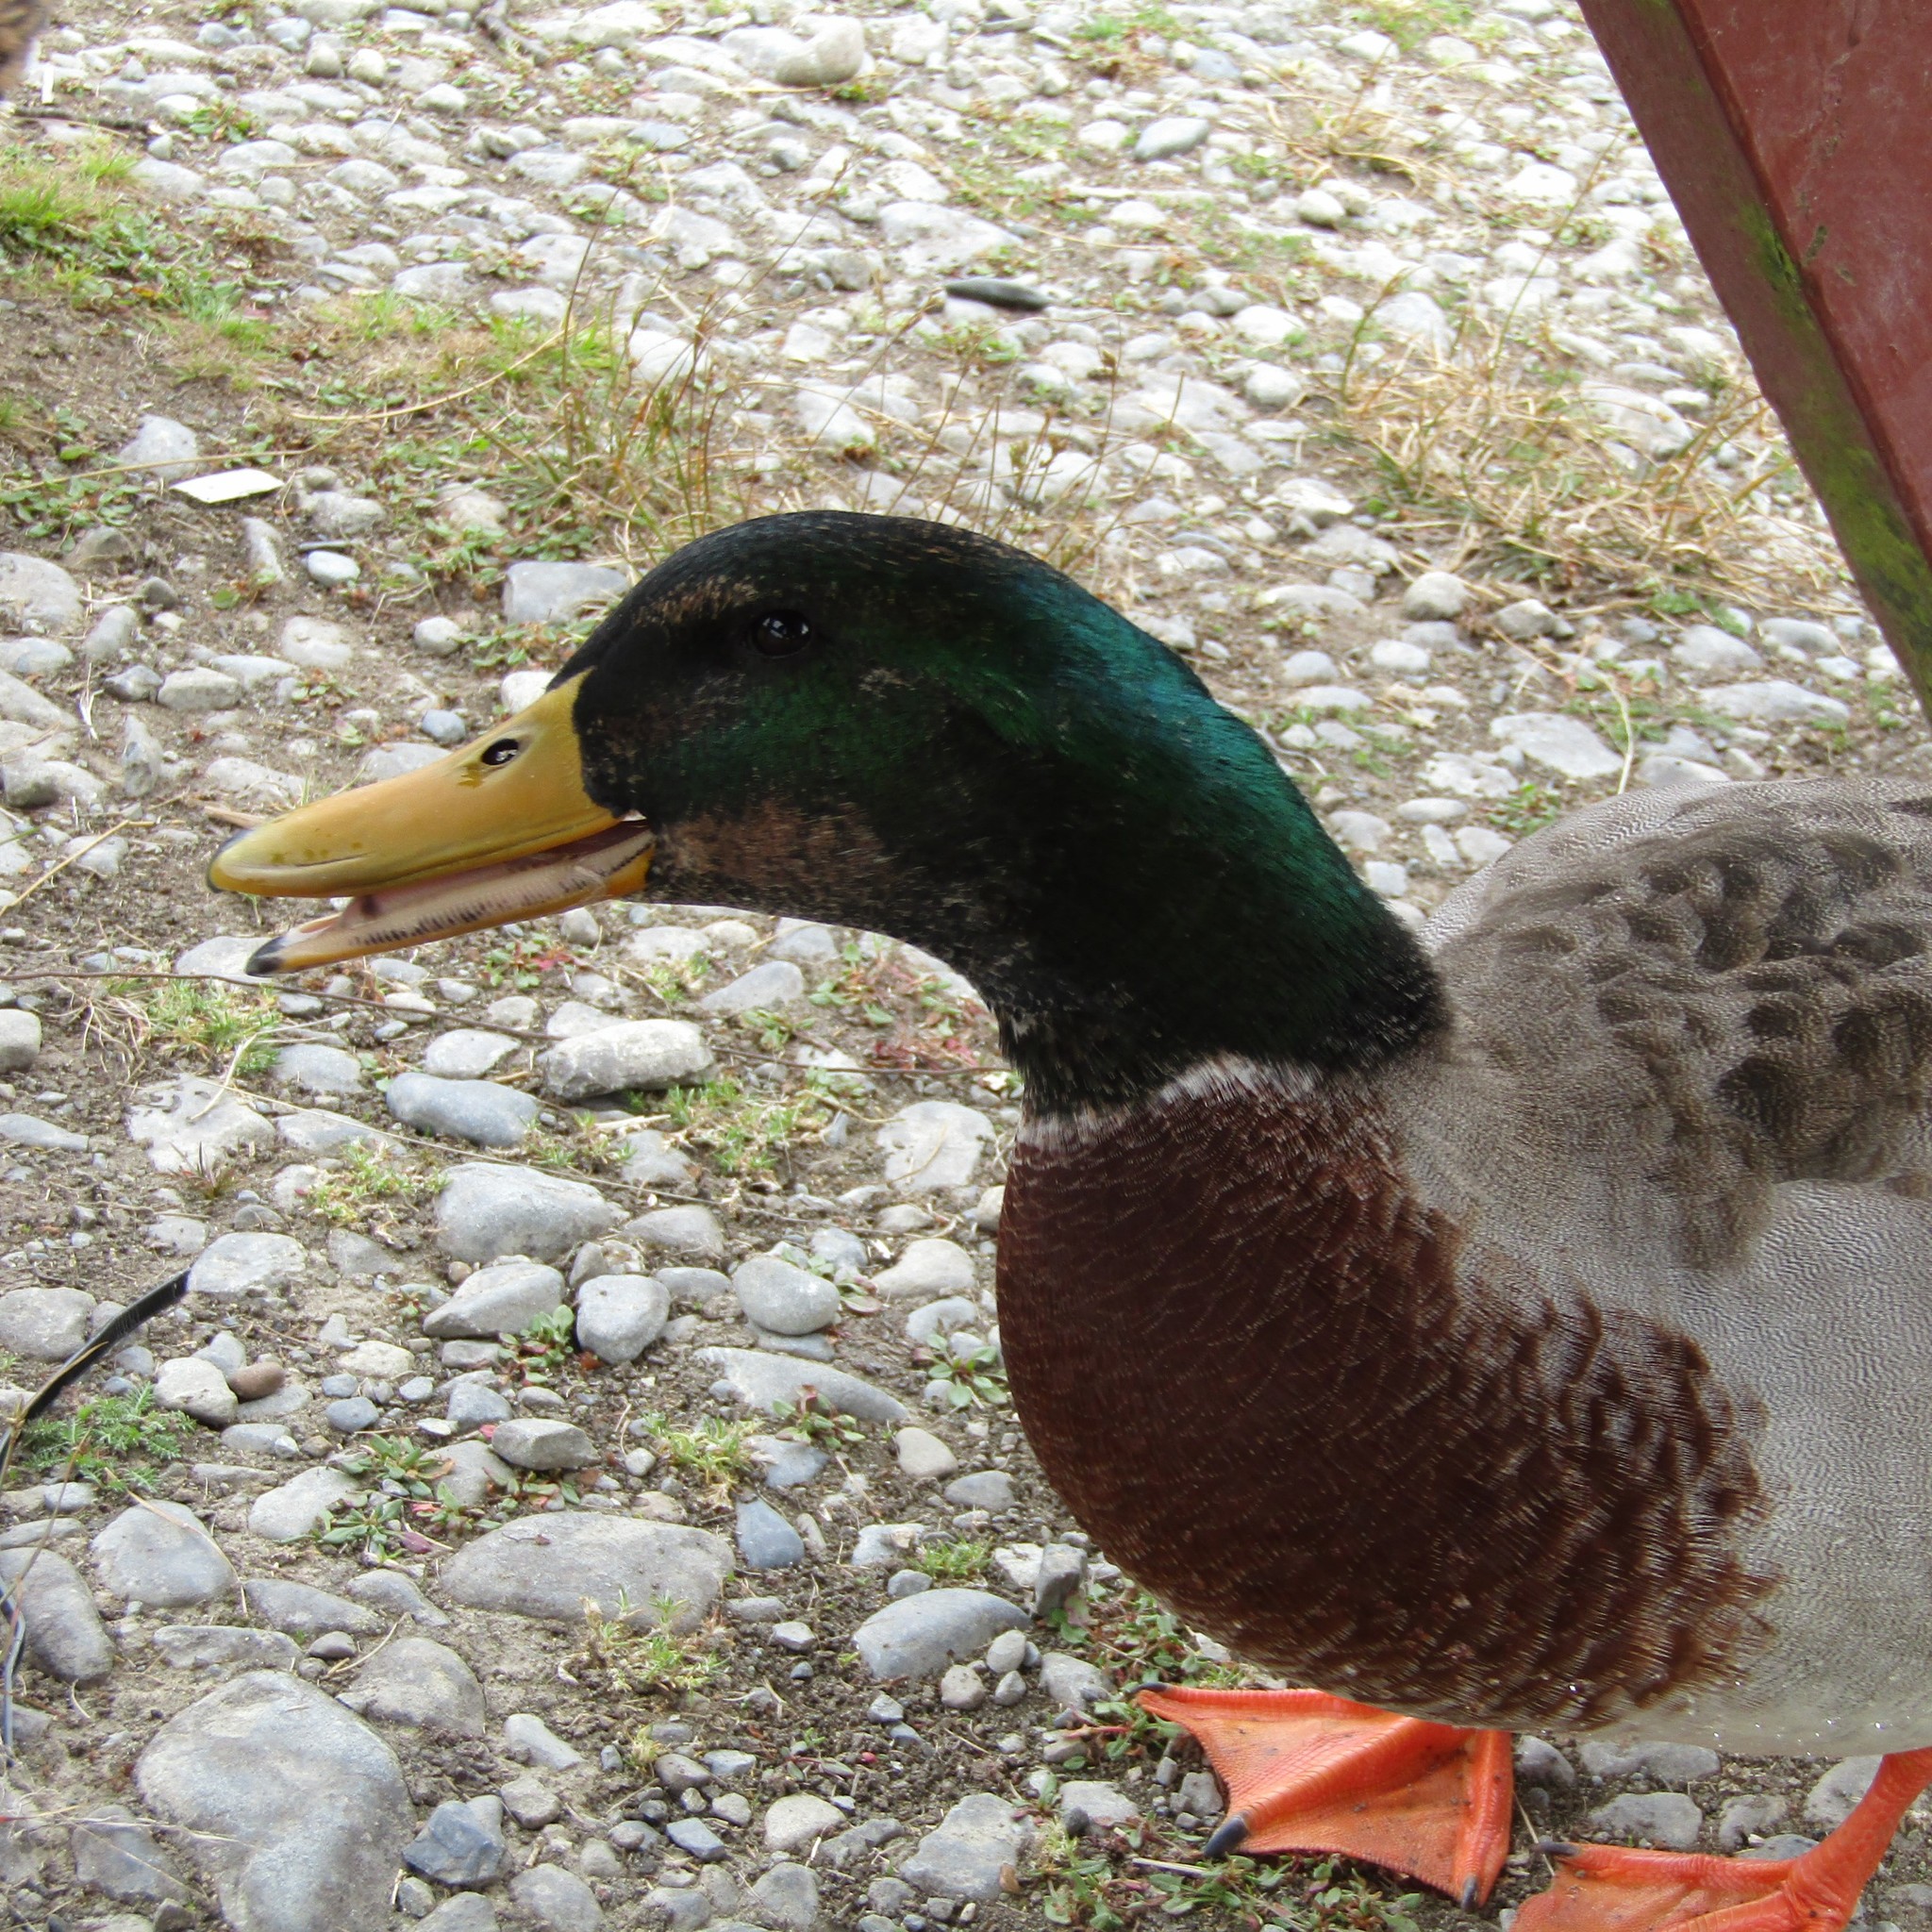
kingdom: Animalia
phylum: Chordata
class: Aves
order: Anseriformes
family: Anatidae
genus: Anas
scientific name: Anas platyrhynchos
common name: Mallard
